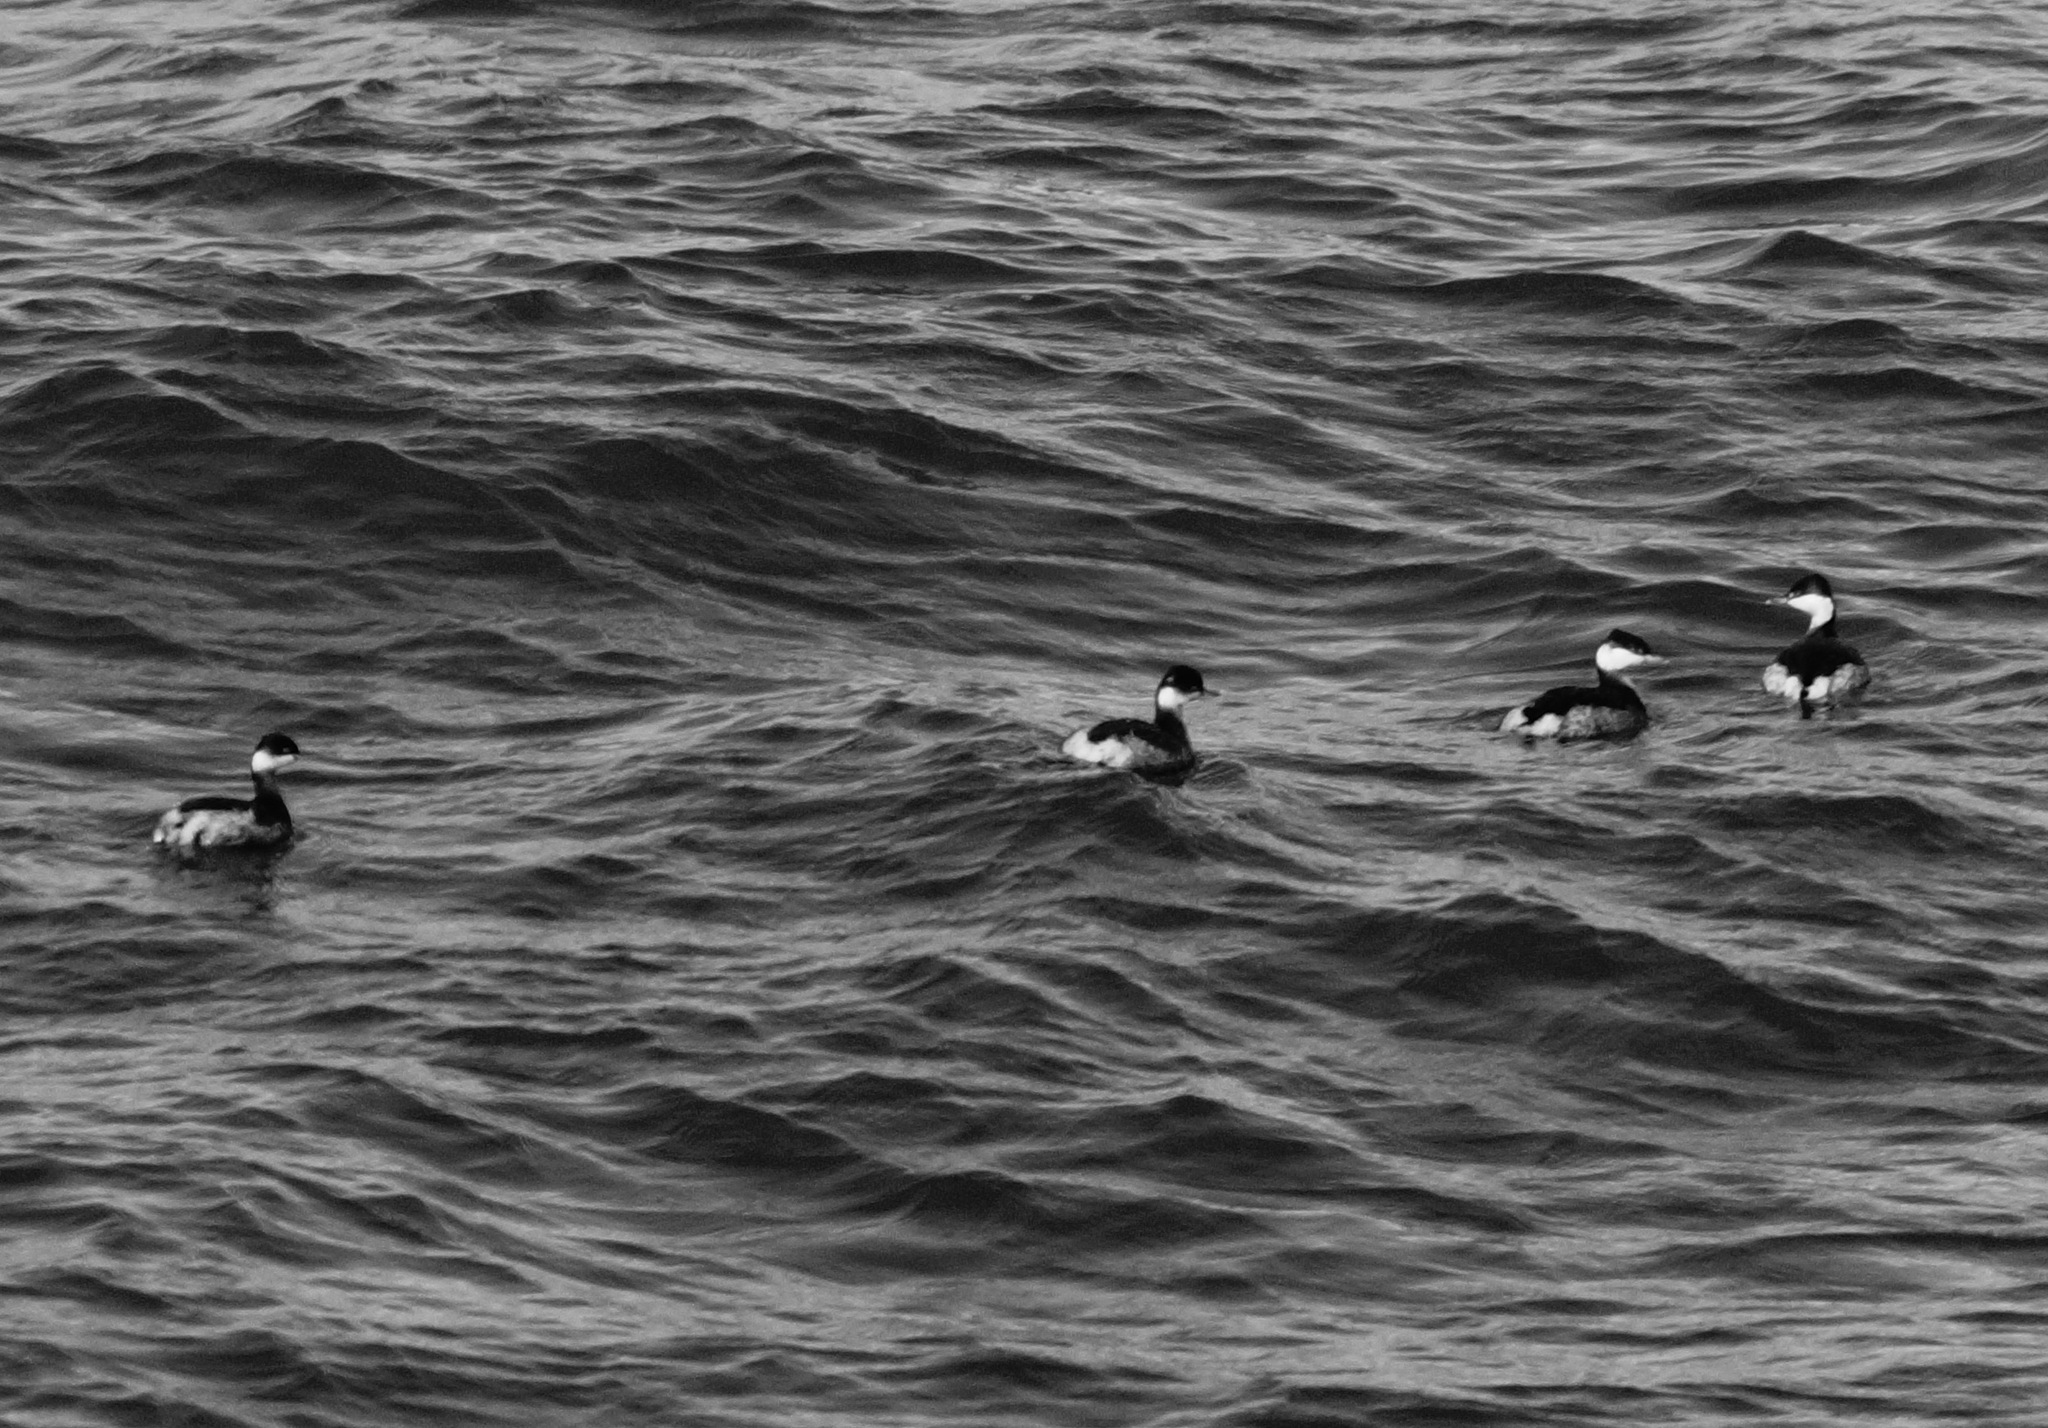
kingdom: Animalia
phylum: Chordata
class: Aves
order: Podicipediformes
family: Podicipedidae
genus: Podiceps
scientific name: Podiceps nigricollis
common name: Black-necked grebe
